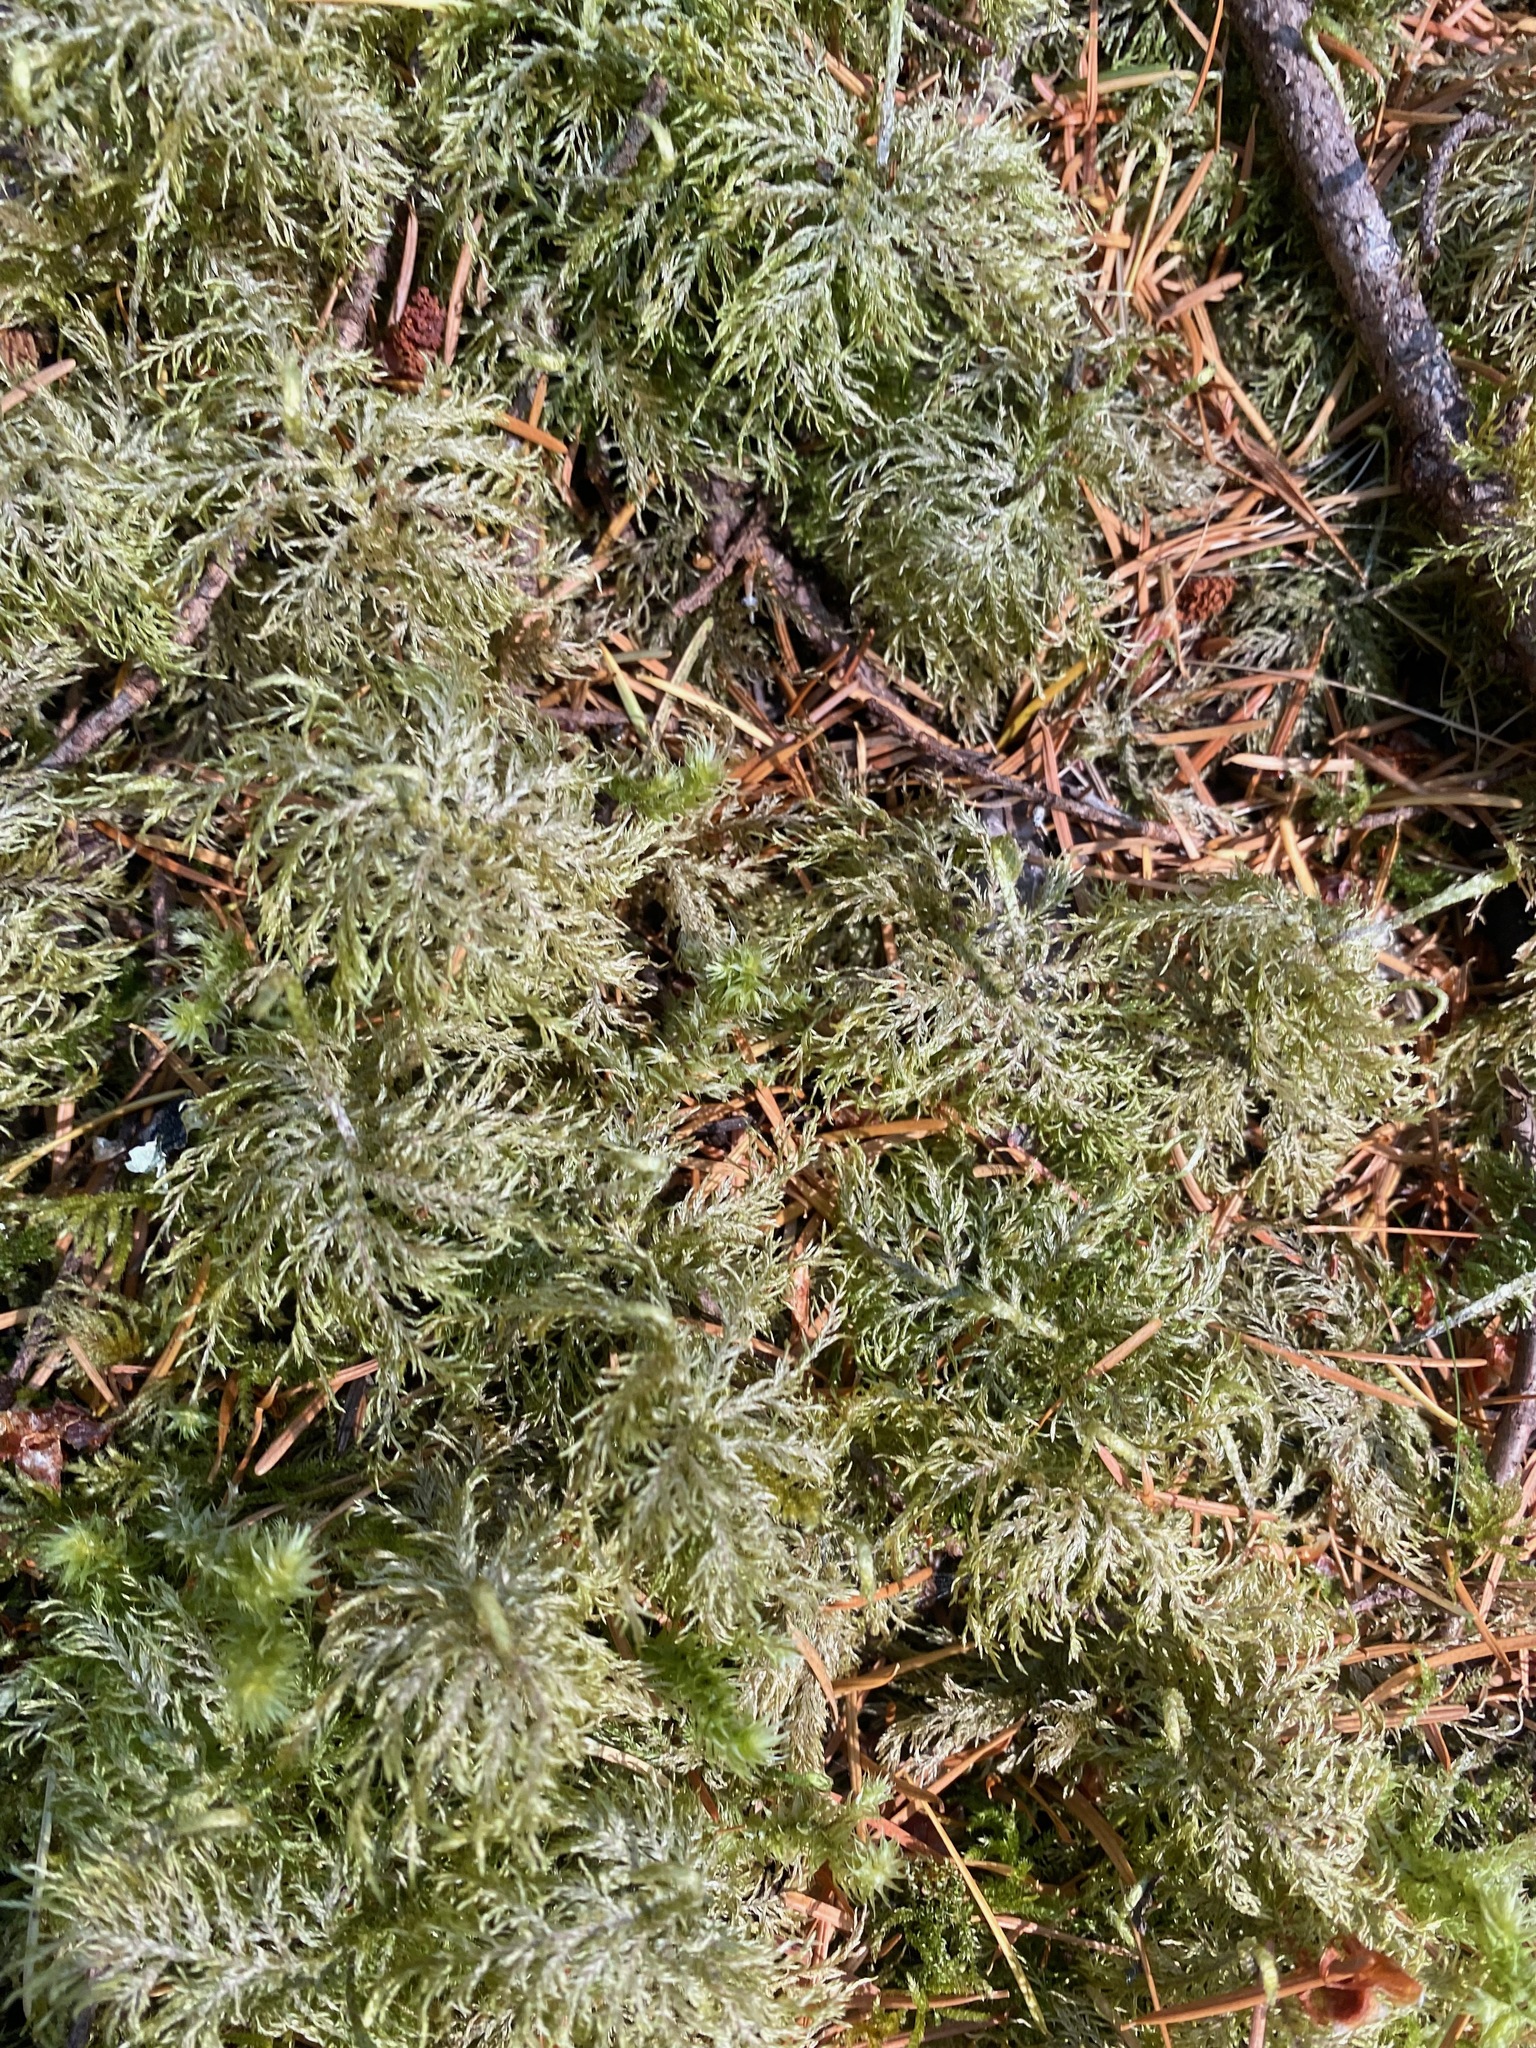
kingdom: Plantae
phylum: Bryophyta
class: Bryopsida
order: Hypnales
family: Hylocomiaceae
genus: Hylocomium
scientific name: Hylocomium splendens
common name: Stairstep moss
